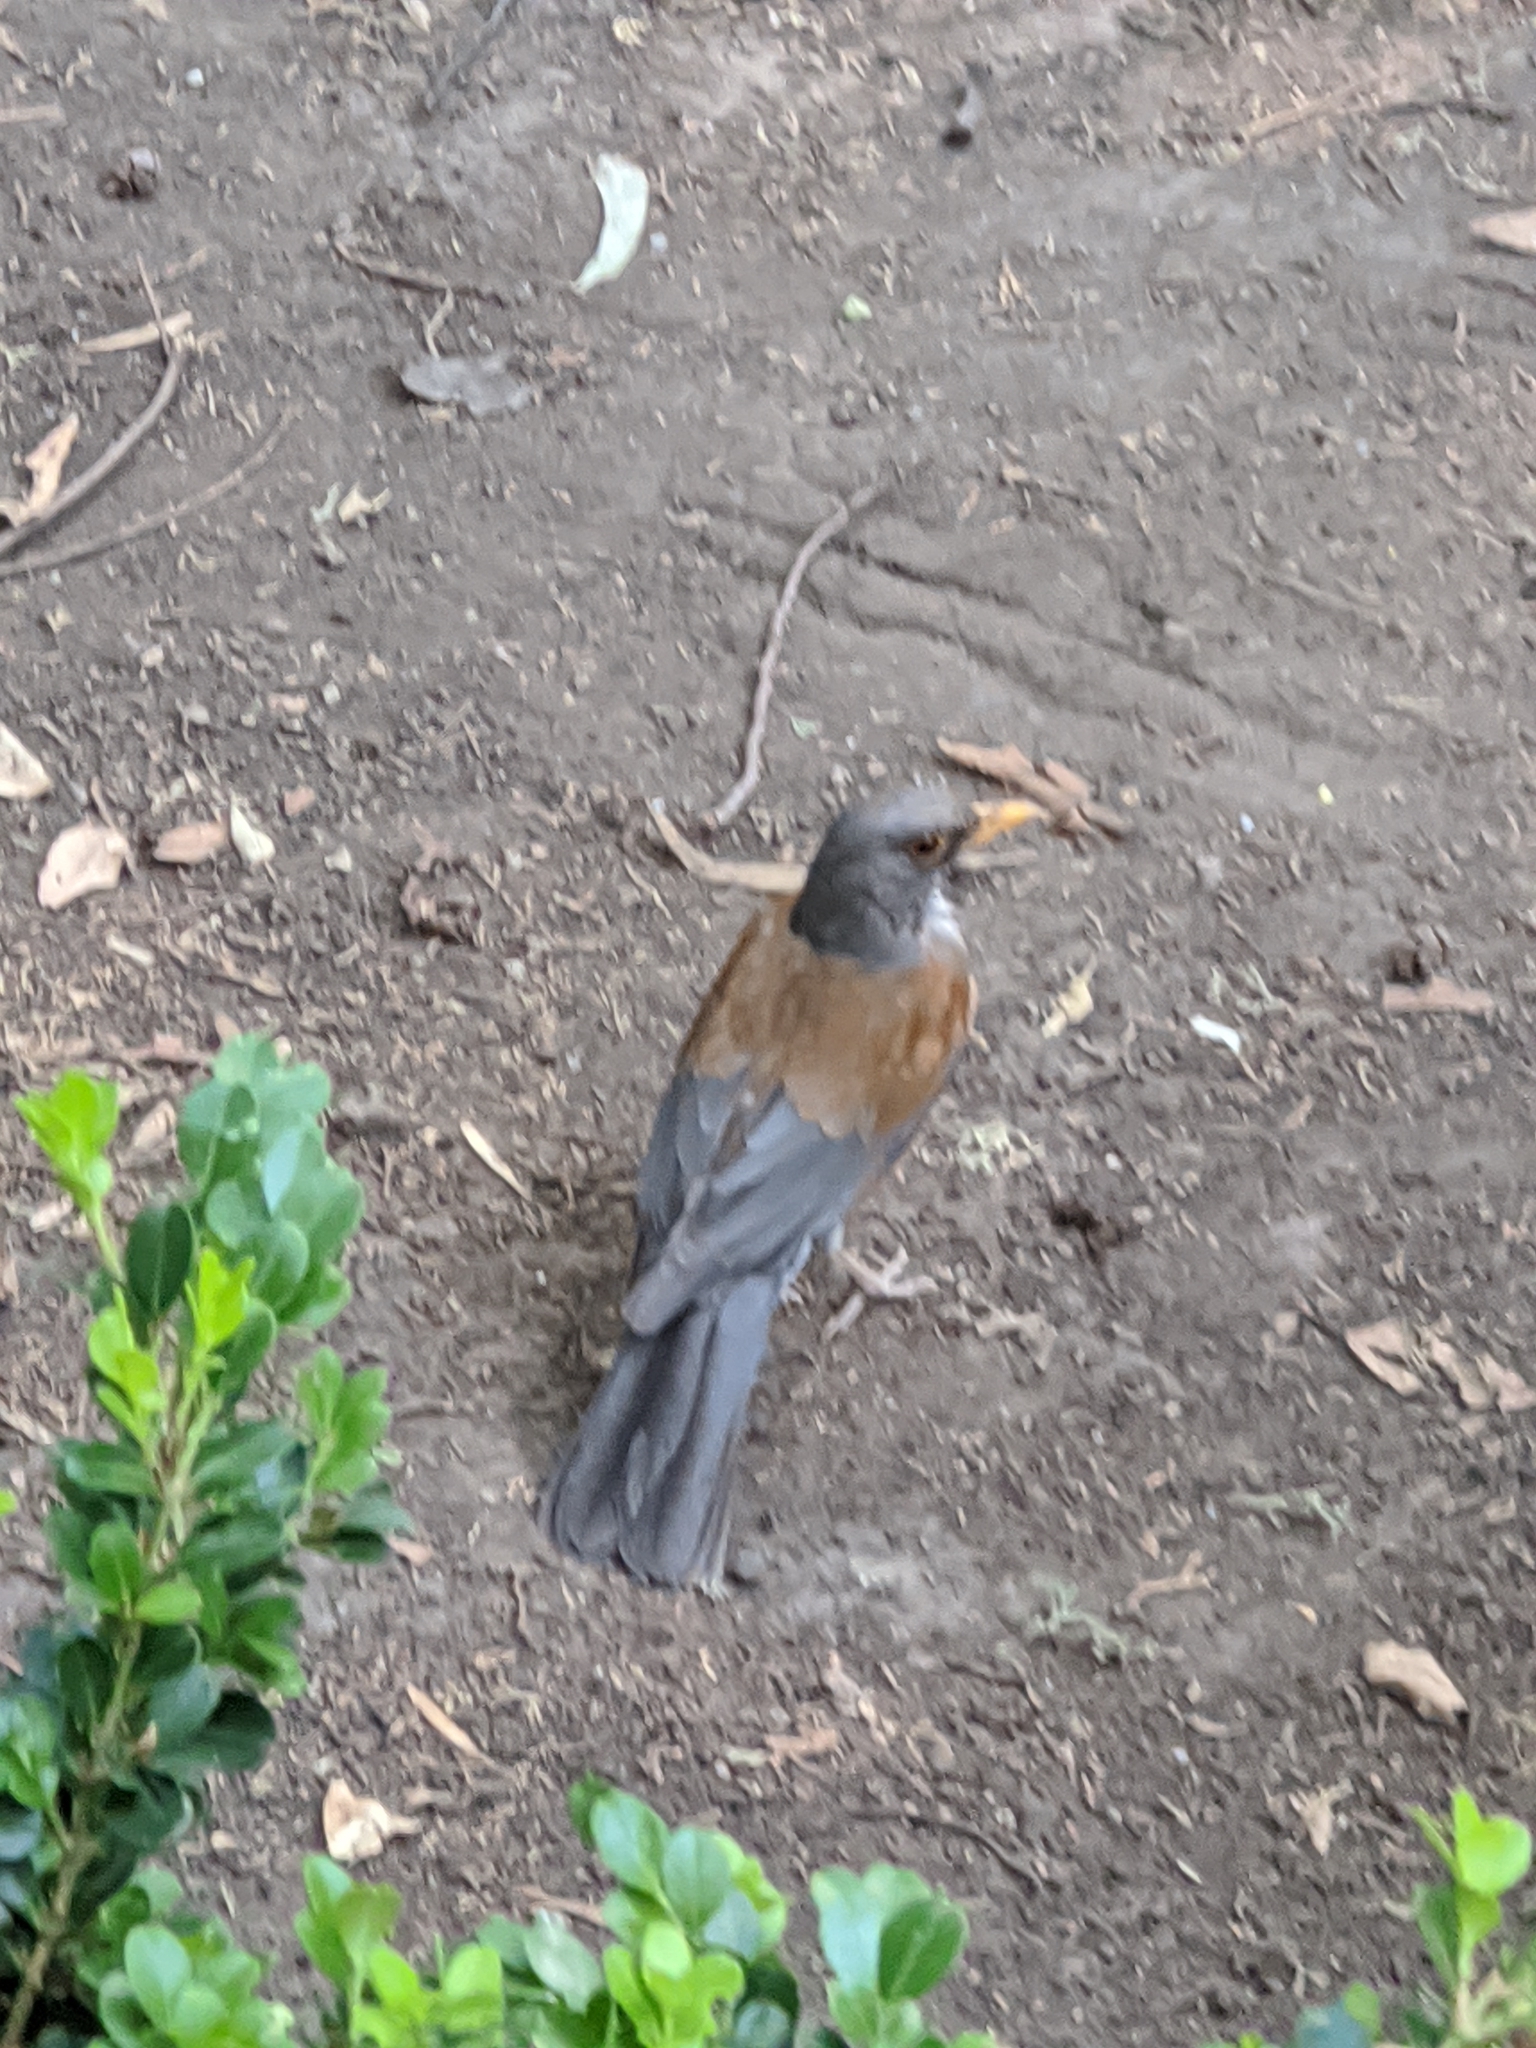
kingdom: Animalia
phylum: Chordata
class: Aves
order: Passeriformes
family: Turdidae
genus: Turdus
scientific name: Turdus rufopalliatus
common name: Rufous-backed robin
